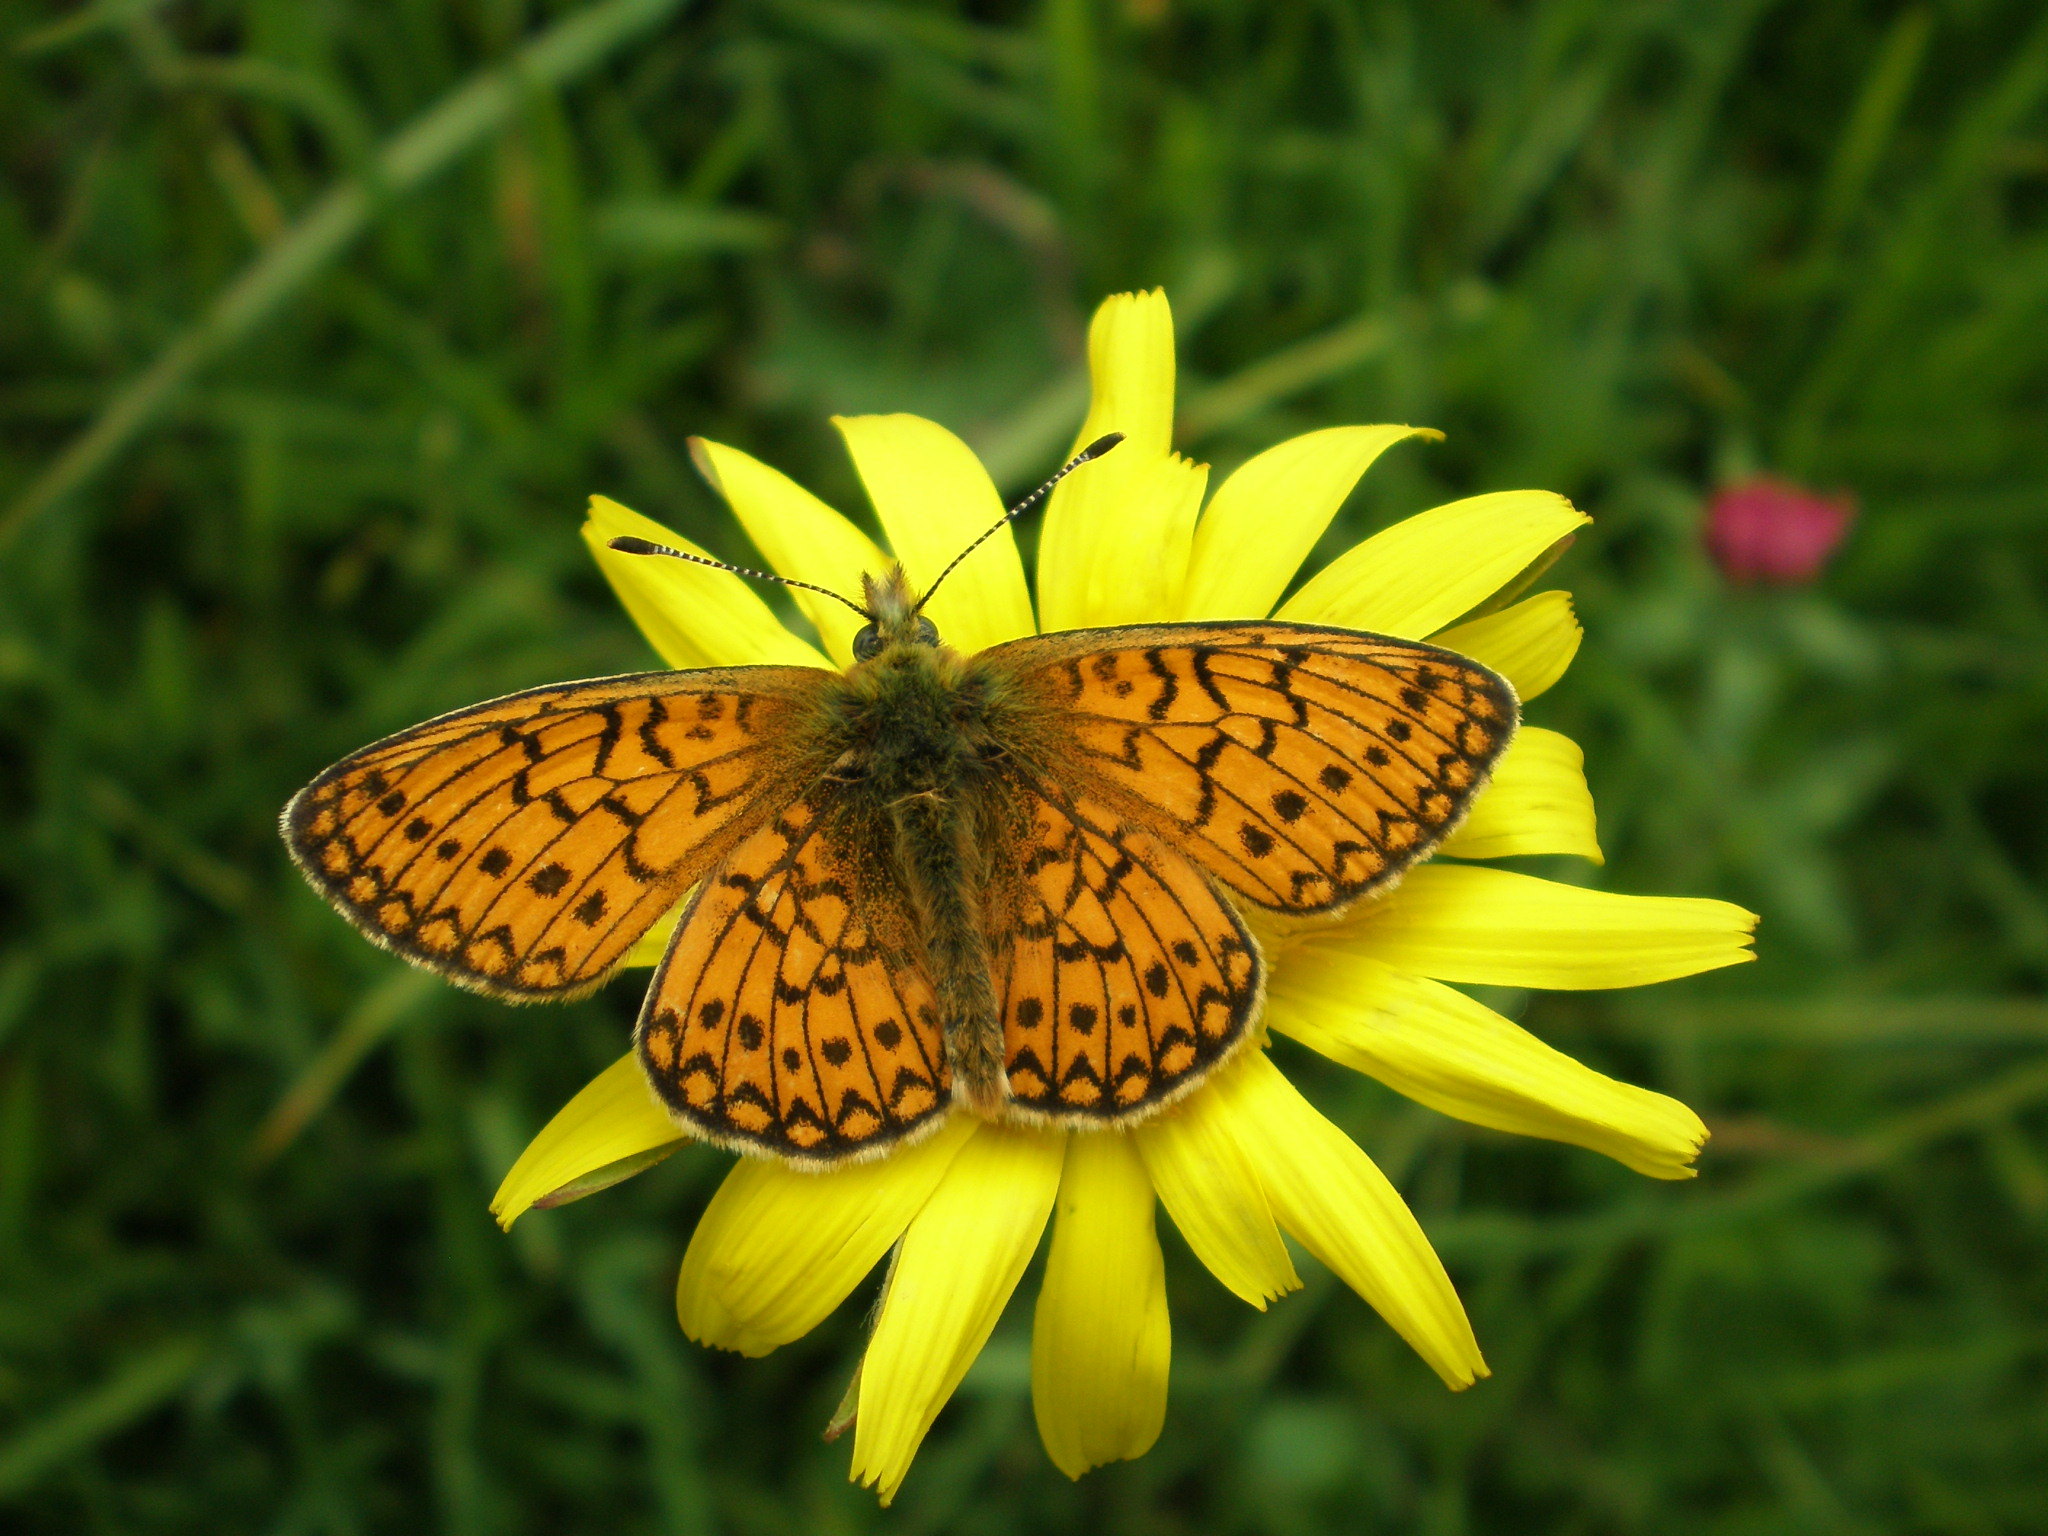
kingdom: Animalia
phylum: Arthropoda
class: Insecta
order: Lepidoptera
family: Nymphalidae
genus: Boloria
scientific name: Boloria eunomia
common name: Bog fritillary
